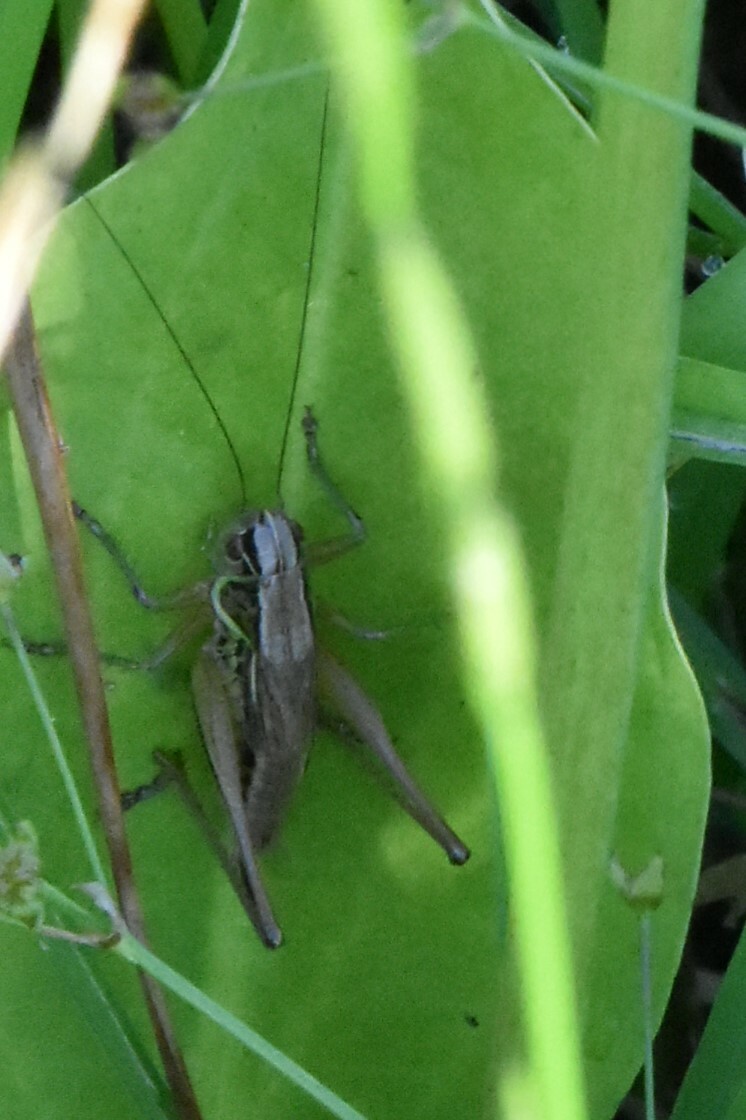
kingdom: Animalia
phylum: Arthropoda
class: Insecta
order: Orthoptera
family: Tettigoniidae
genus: Roeseliana
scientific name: Roeseliana roeselii
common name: Roesel's bush cricket
